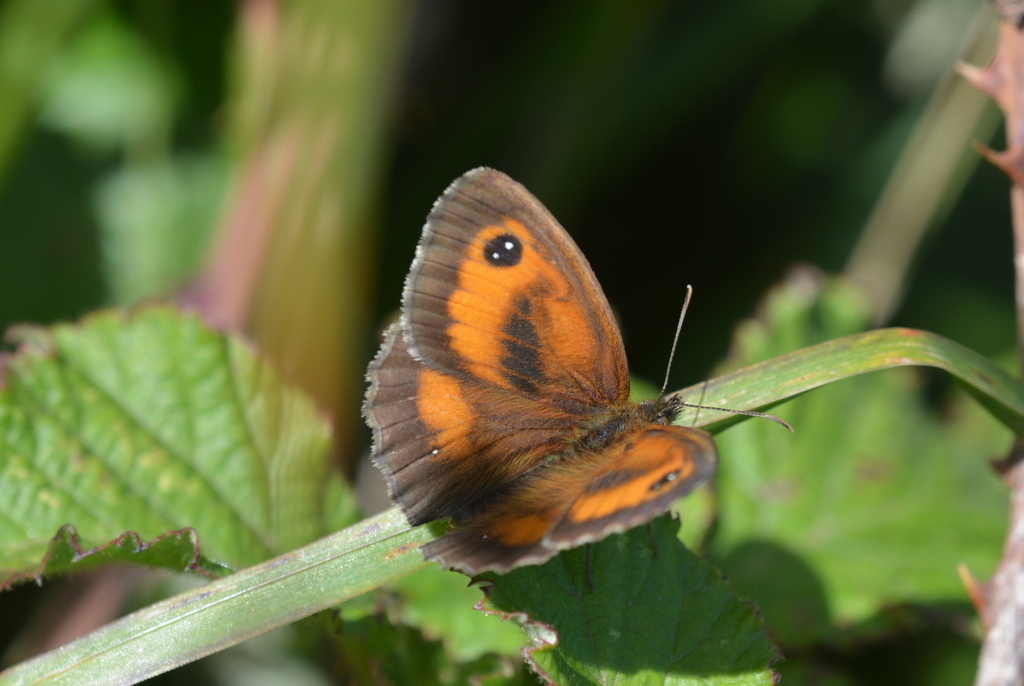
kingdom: Animalia
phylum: Arthropoda
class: Insecta
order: Lepidoptera
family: Nymphalidae
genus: Pyronia
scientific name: Pyronia tithonus
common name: Gatekeeper
